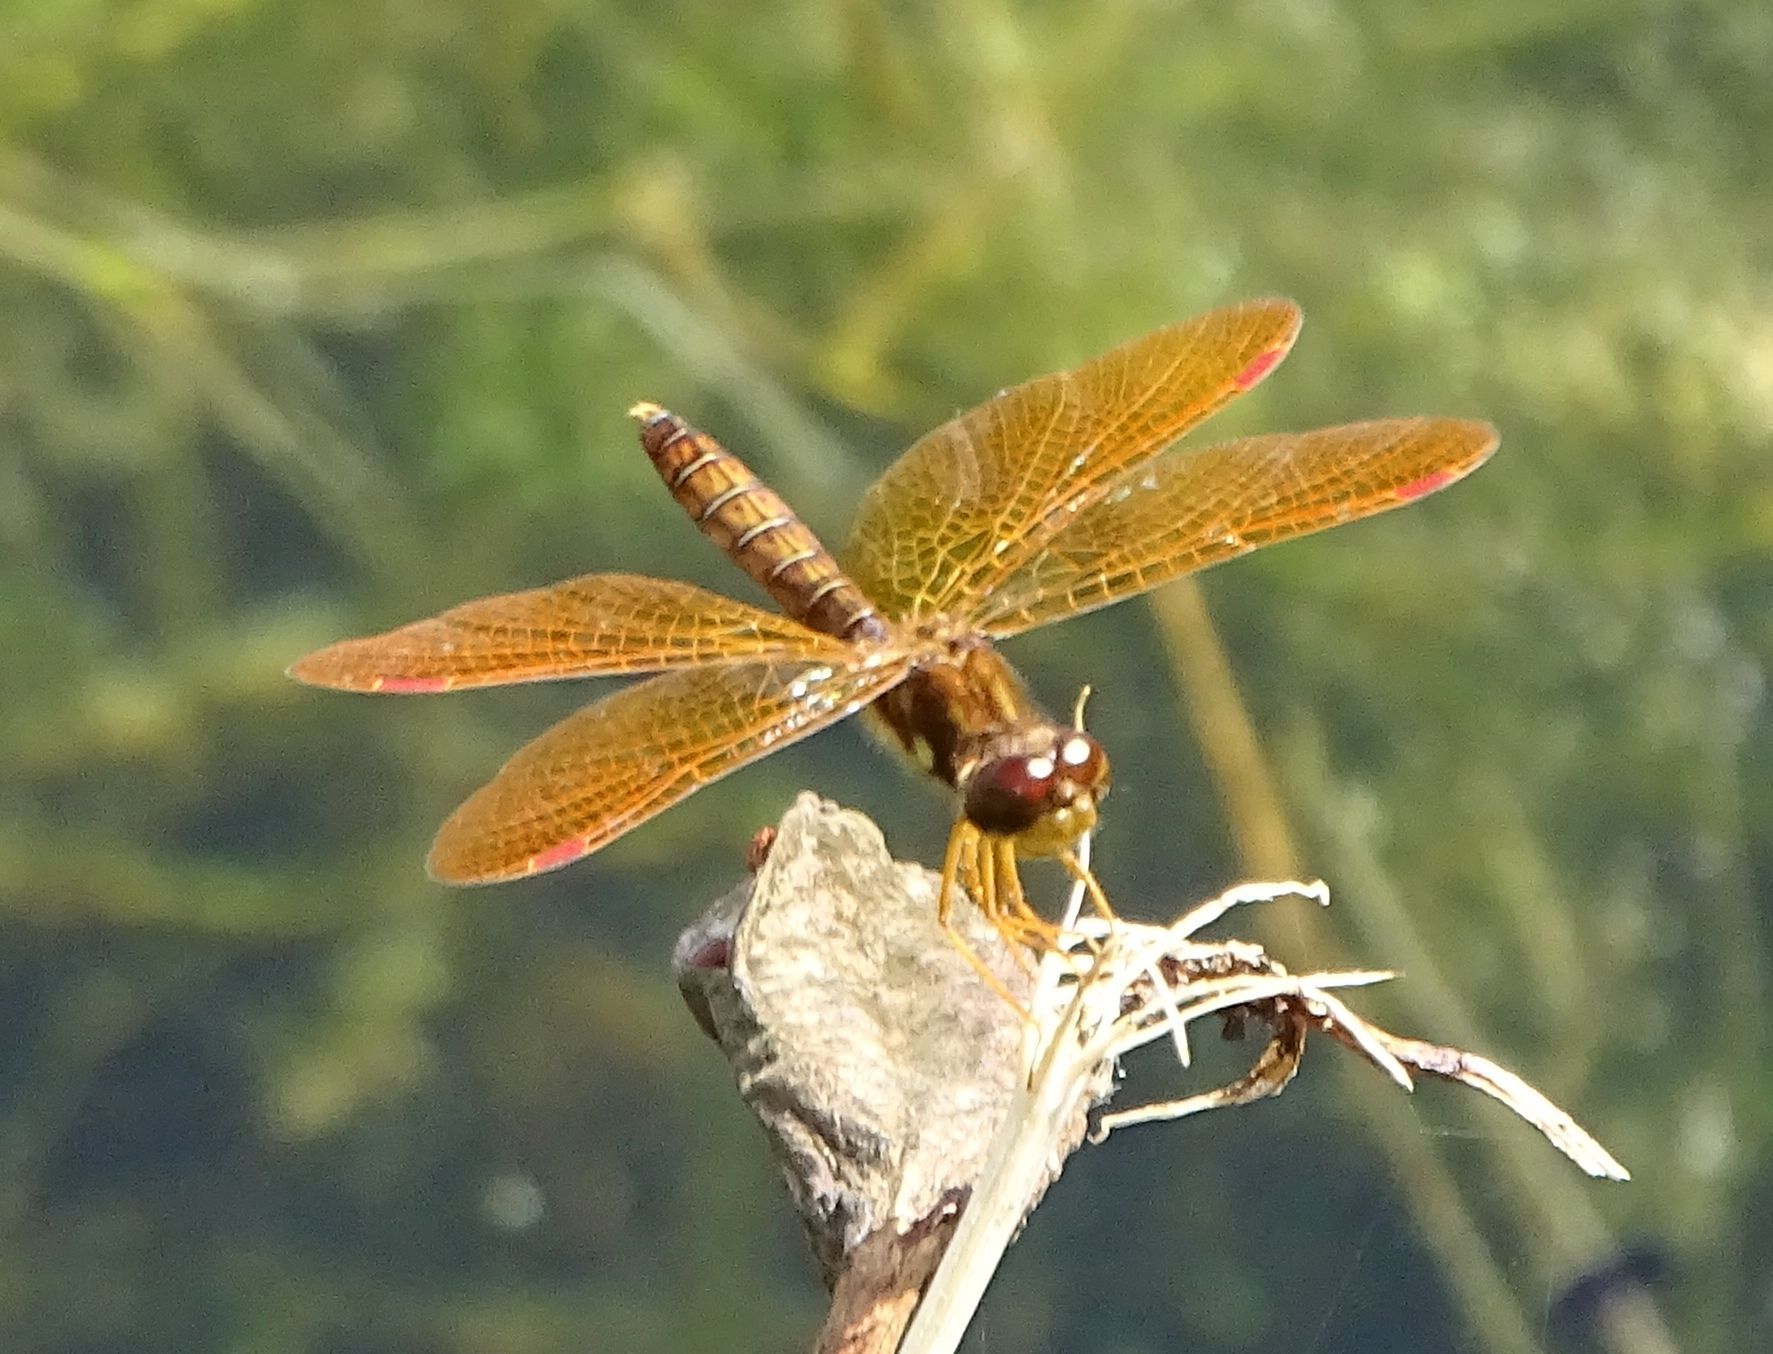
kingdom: Animalia
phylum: Arthropoda
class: Insecta
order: Odonata
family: Libellulidae
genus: Perithemis
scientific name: Perithemis tenera
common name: Eastern amberwing
